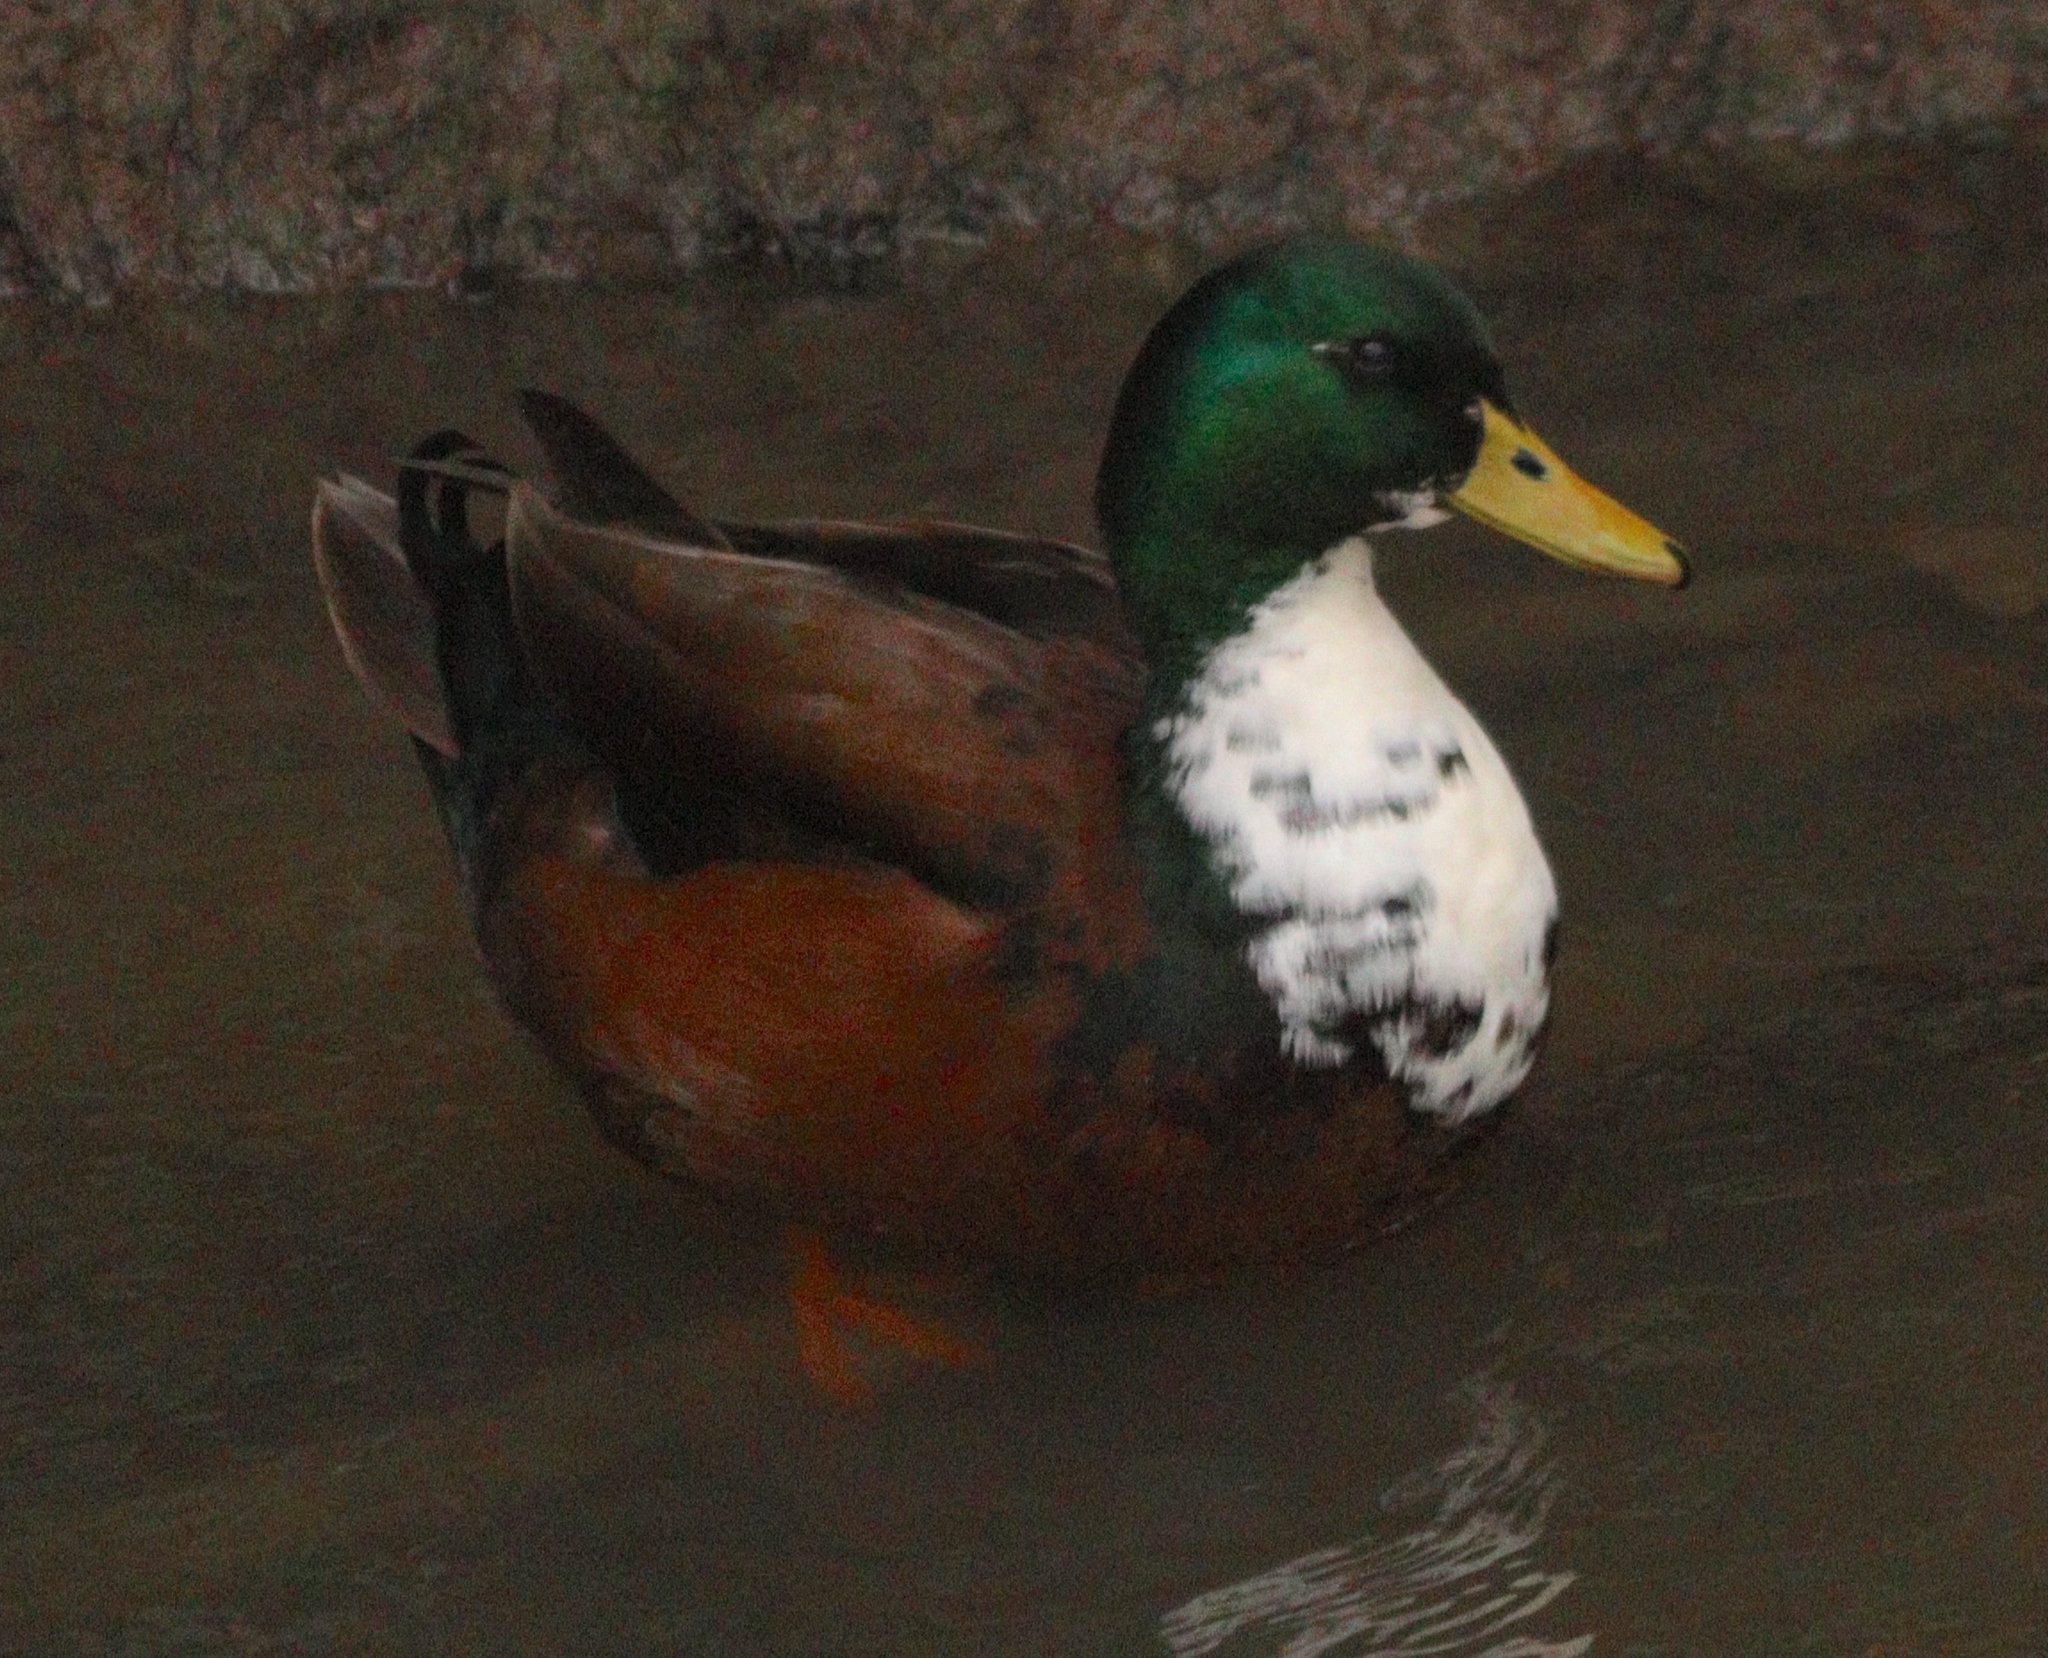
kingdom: Animalia
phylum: Chordata
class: Aves
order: Anseriformes
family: Anatidae
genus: Anas
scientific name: Anas platyrhynchos
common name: Mallard
